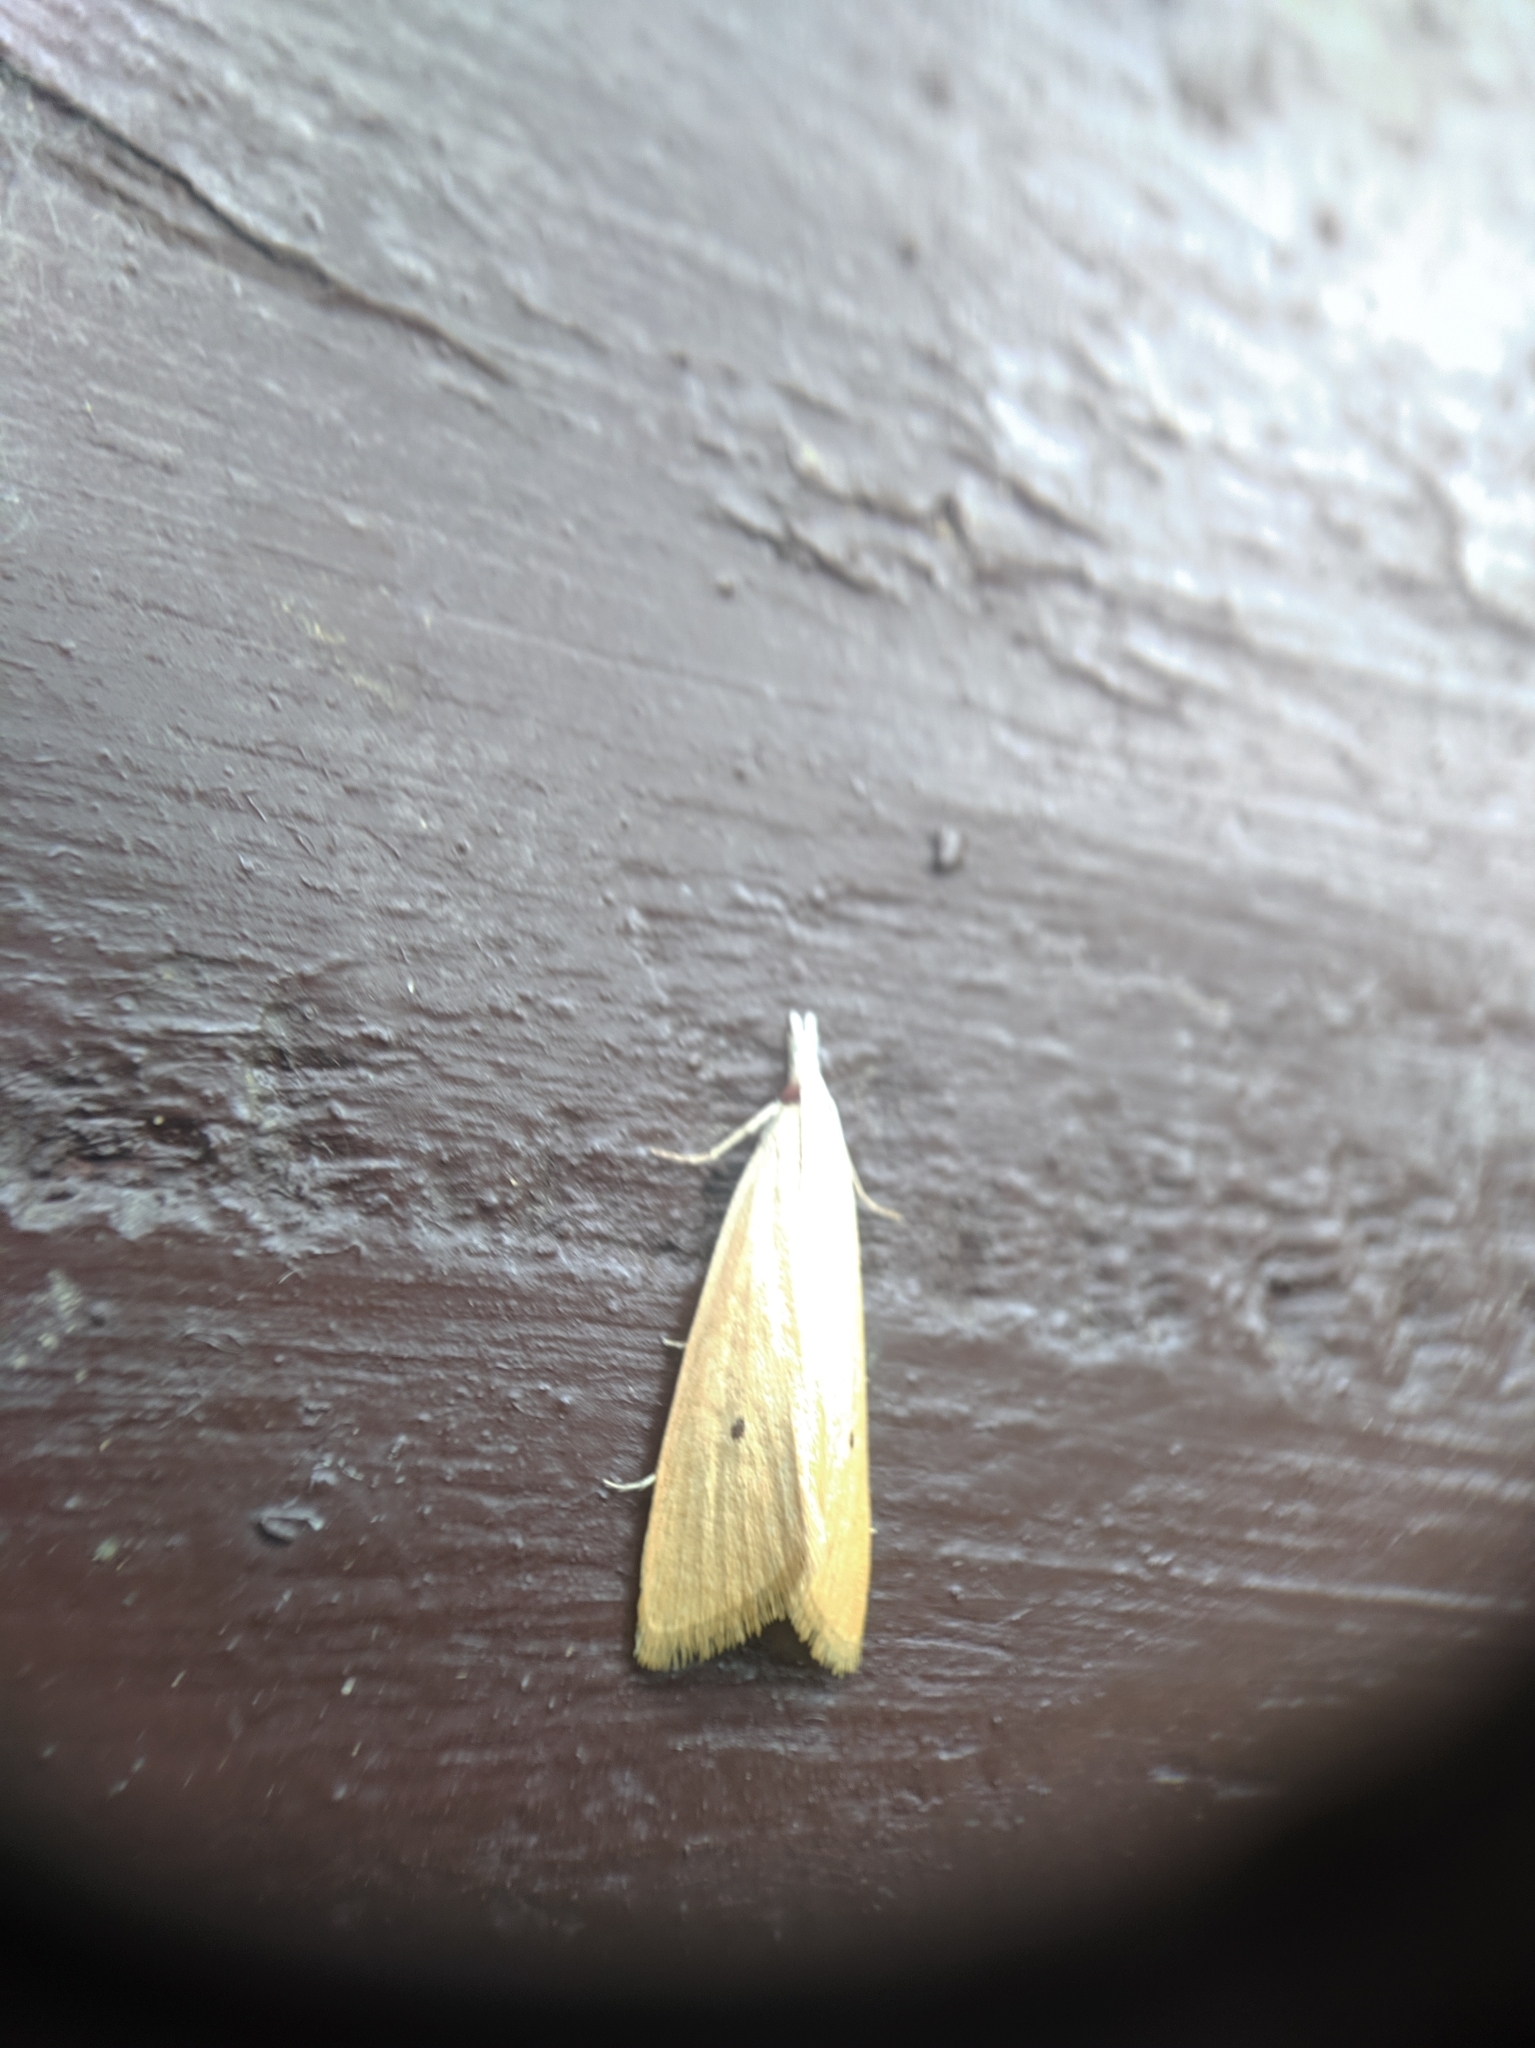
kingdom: Animalia
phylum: Arthropoda
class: Insecta
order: Lepidoptera
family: Crambidae
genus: Scirpophaga
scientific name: Scirpophaga incertulas
